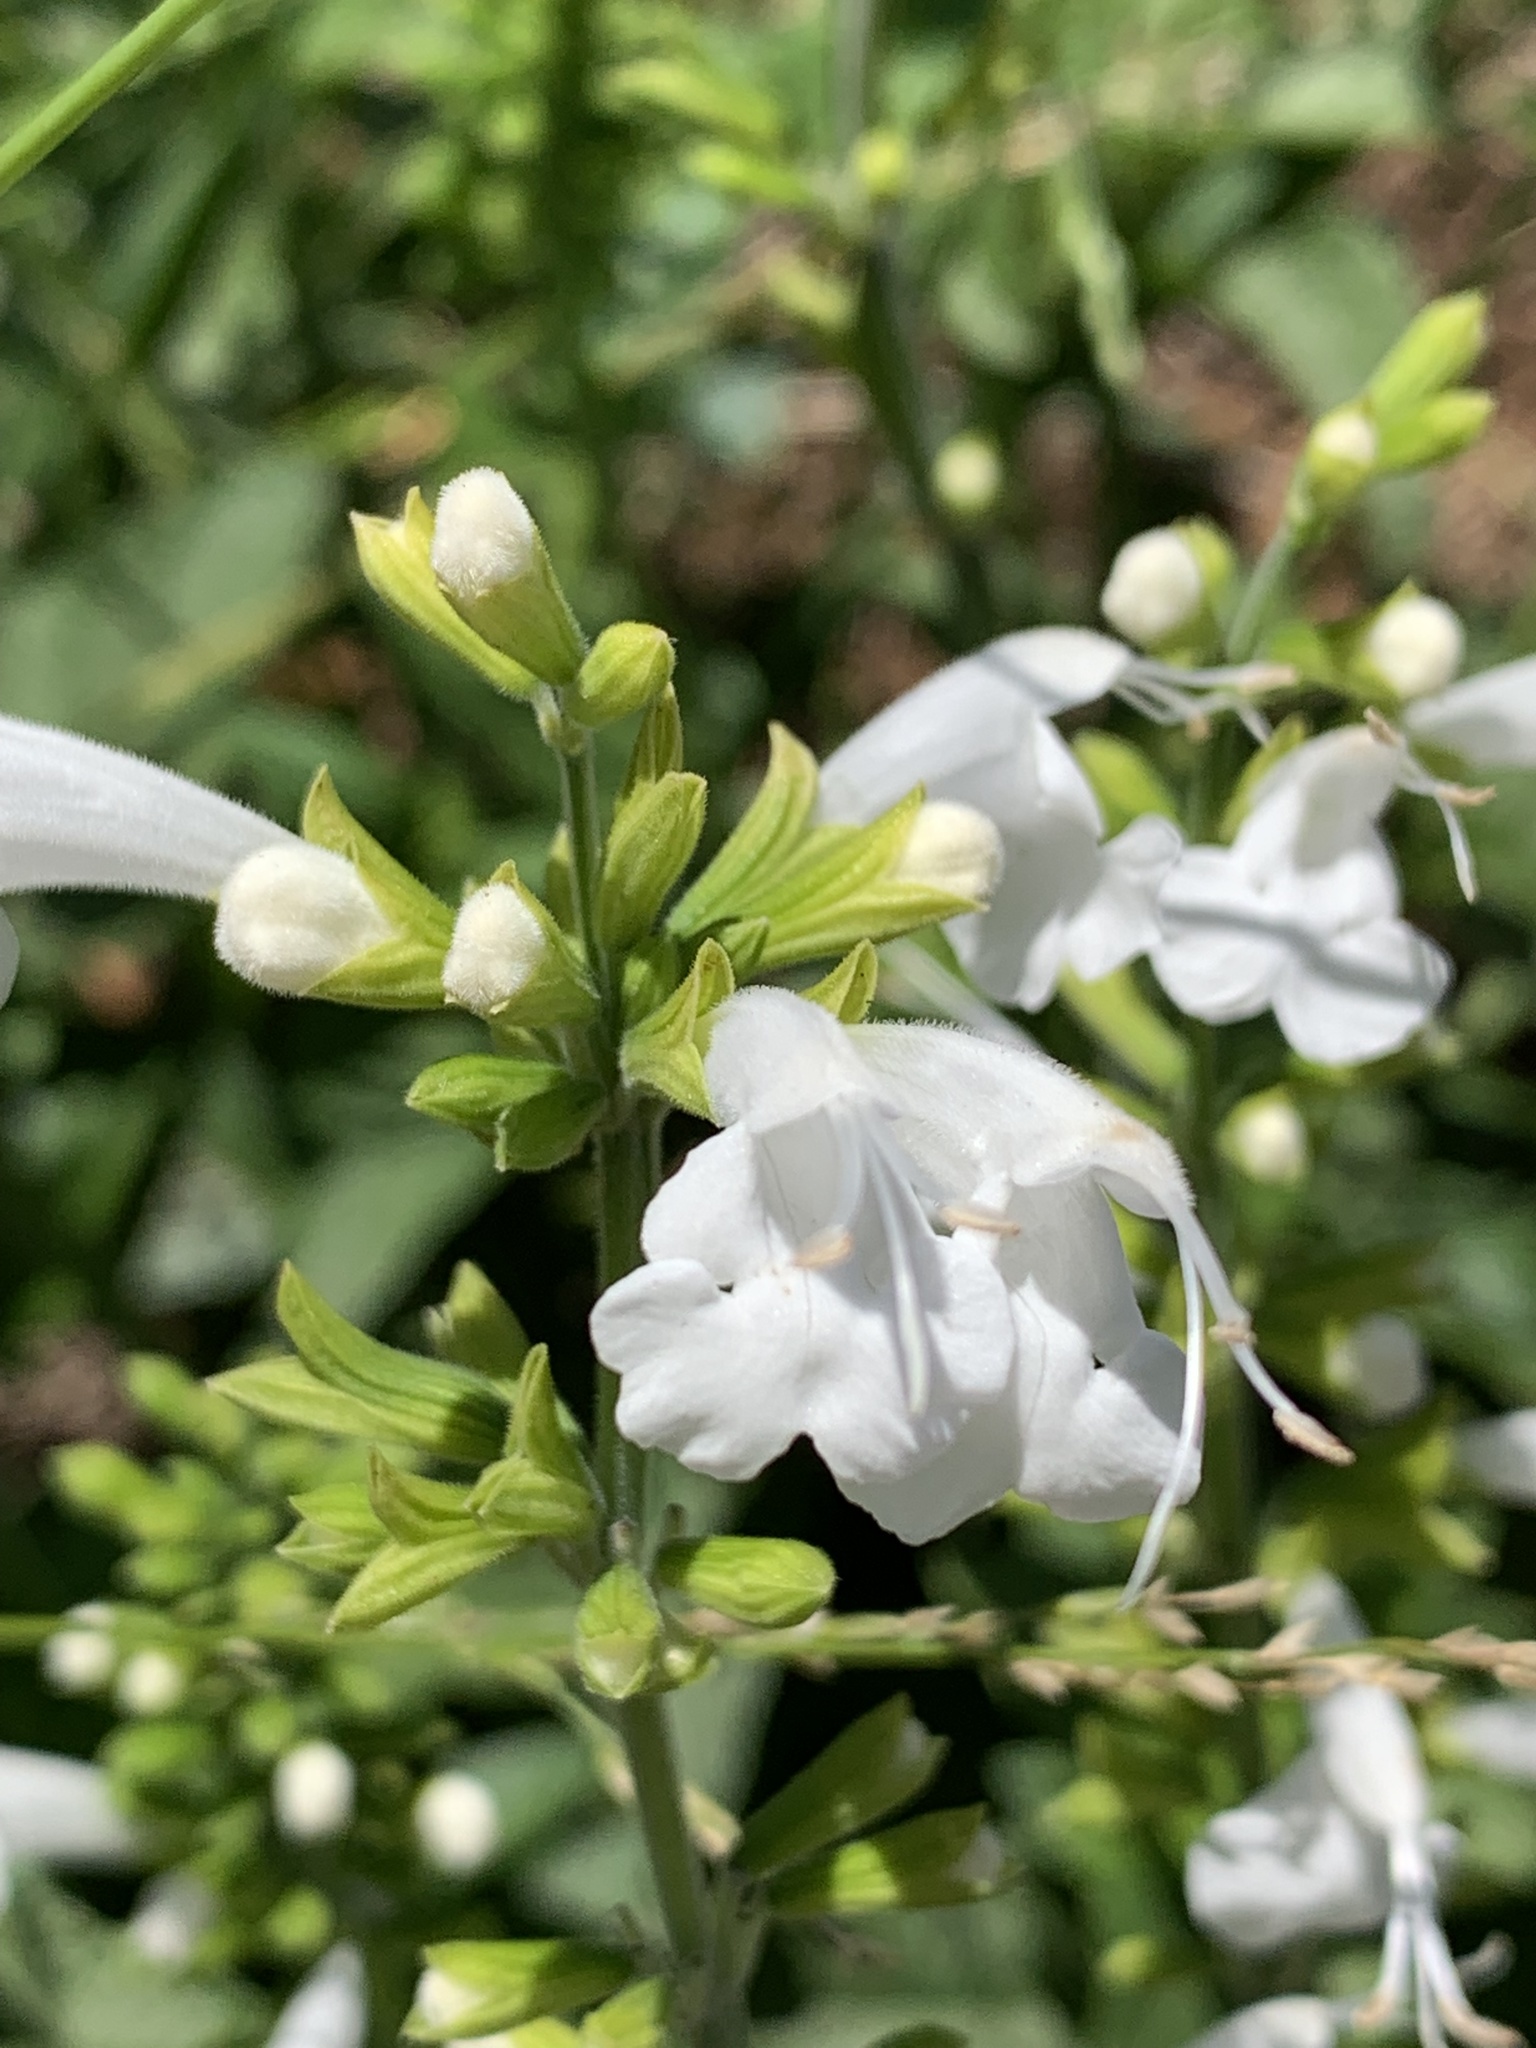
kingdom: Plantae
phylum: Tracheophyta
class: Magnoliopsida
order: Lamiales
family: Lamiaceae
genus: Salvia
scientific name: Salvia coccinea
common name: Blood sage
